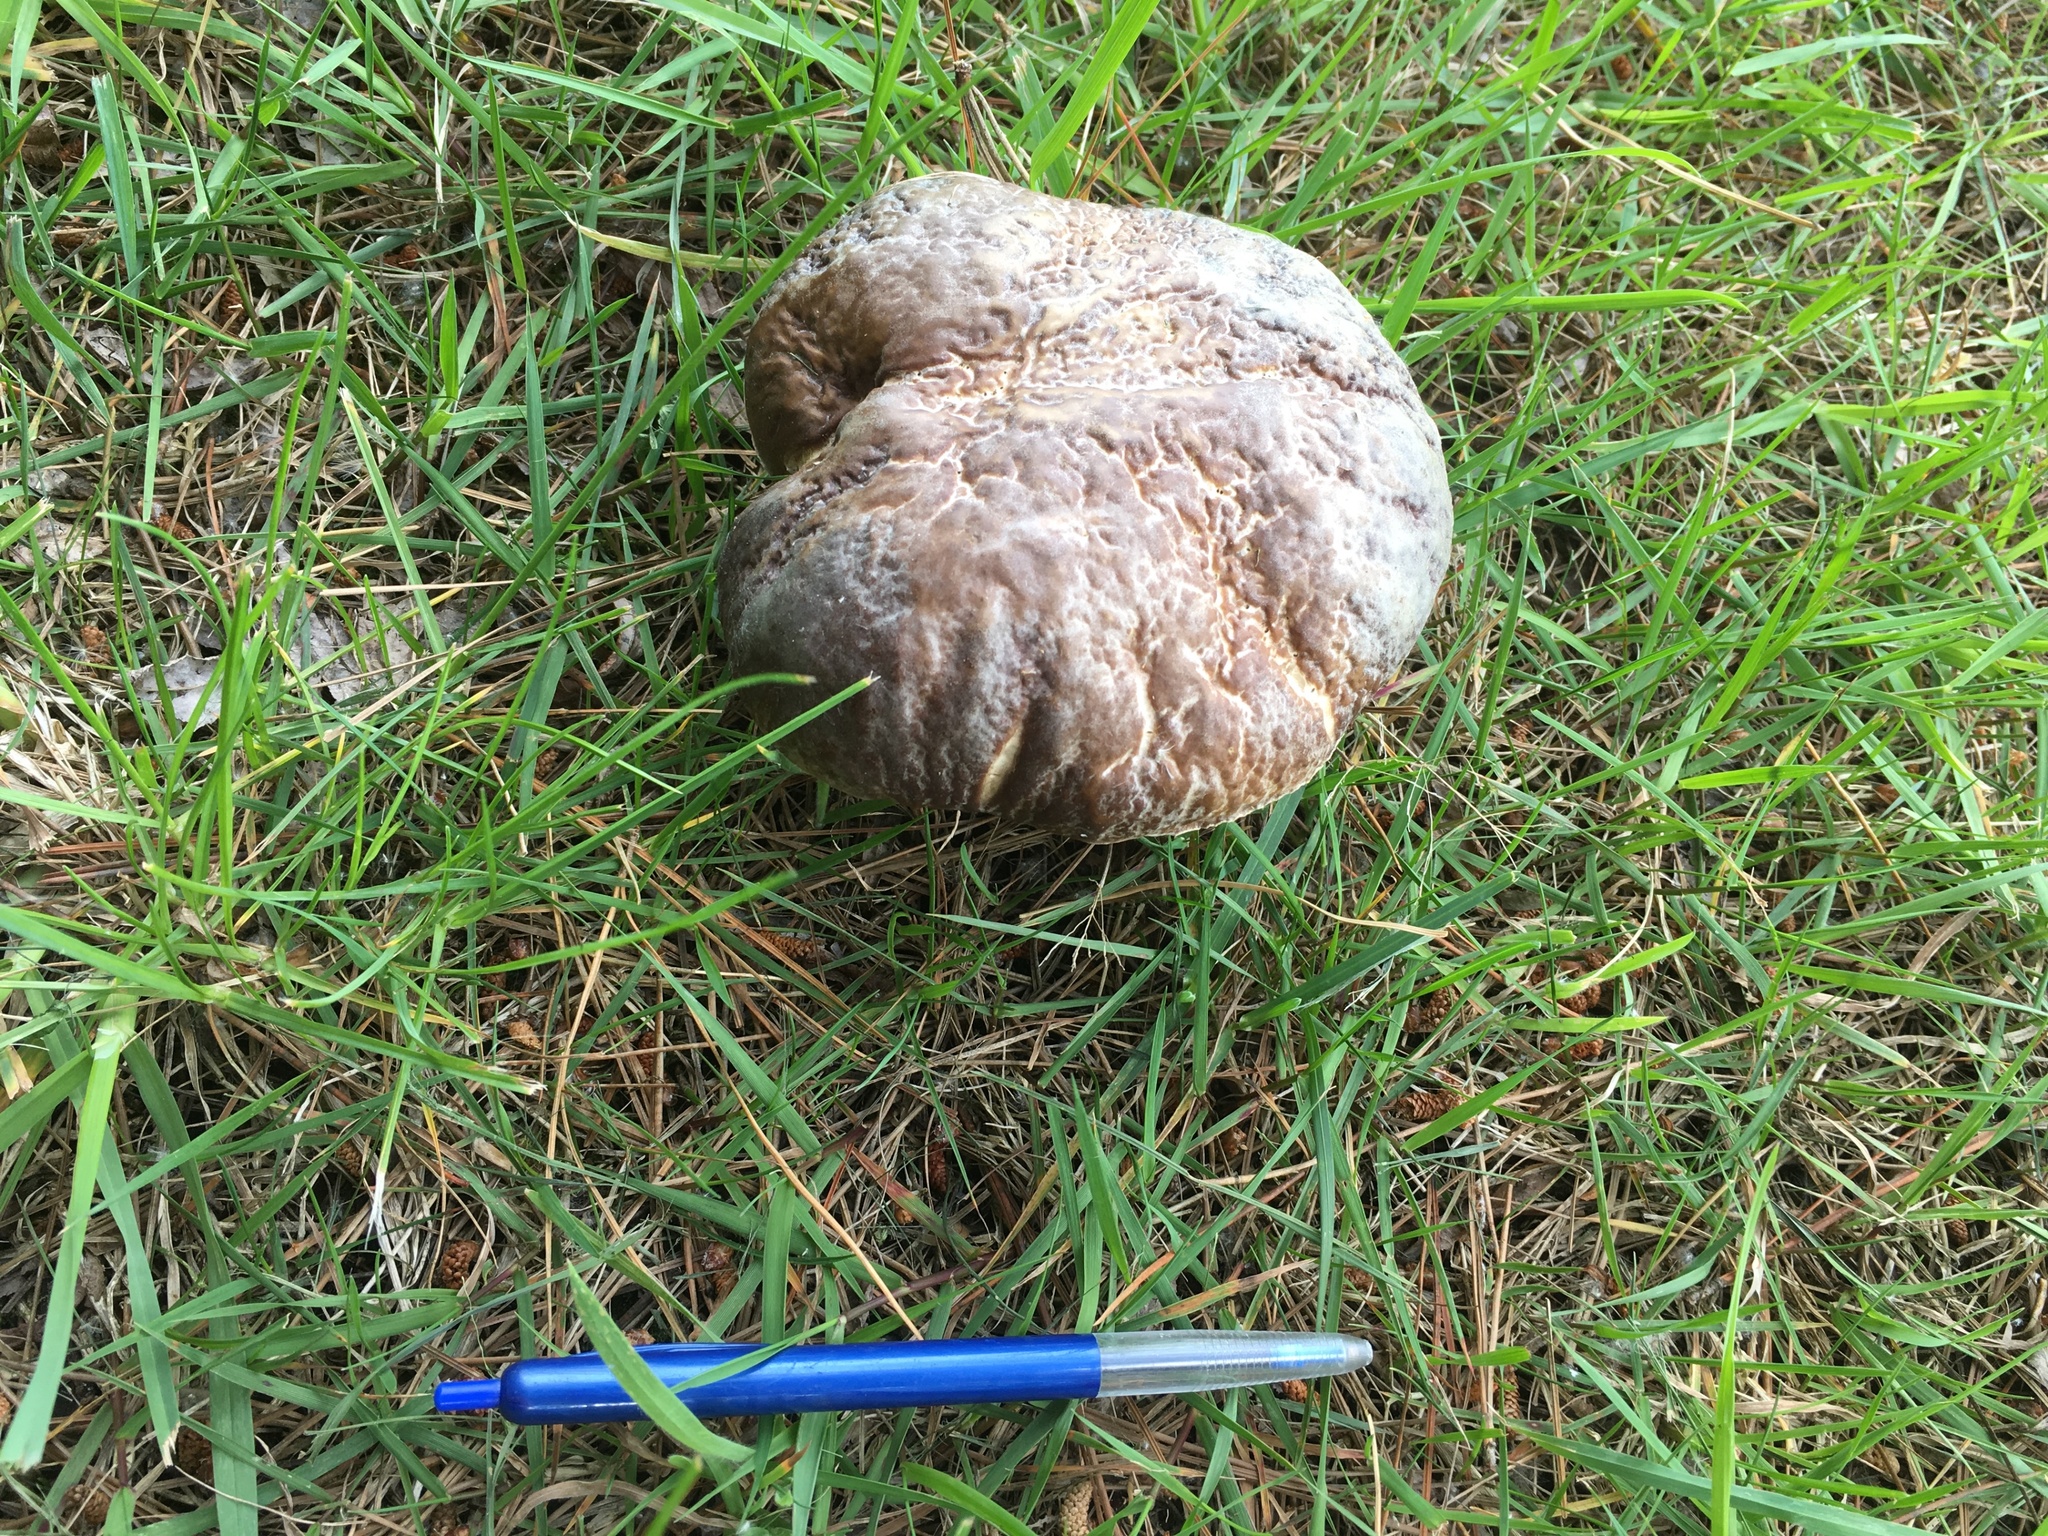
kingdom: Fungi
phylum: Basidiomycota
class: Agaricomycetes
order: Boletales
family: Boletaceae
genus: Boletus
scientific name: Boletus edulis
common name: Cep
